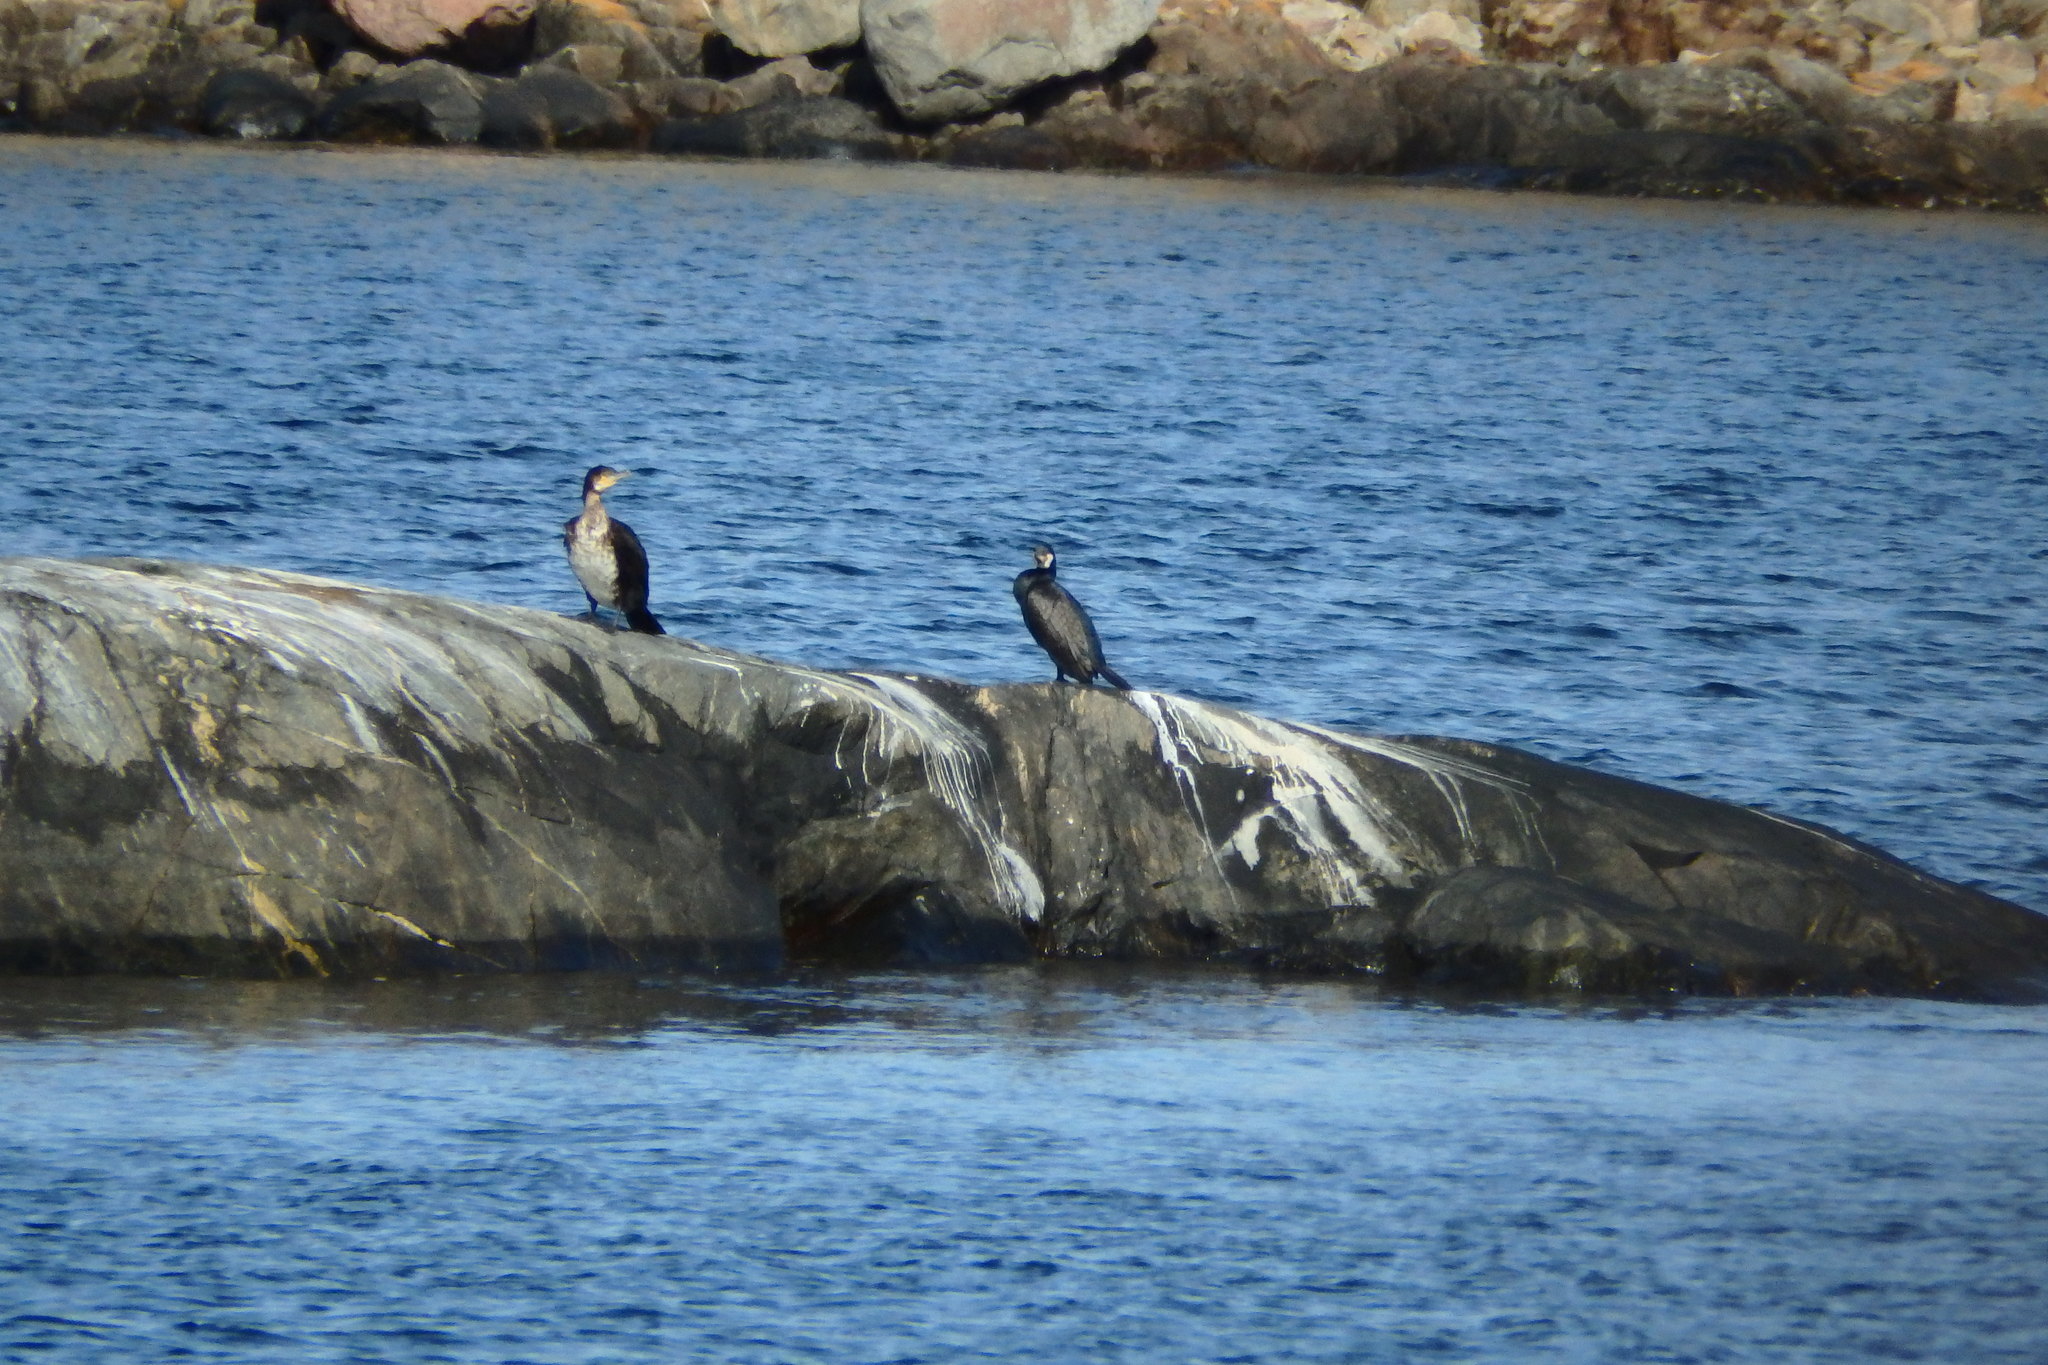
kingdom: Animalia
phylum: Chordata
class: Aves
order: Suliformes
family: Phalacrocoracidae
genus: Phalacrocorax
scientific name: Phalacrocorax carbo
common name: Great cormorant
